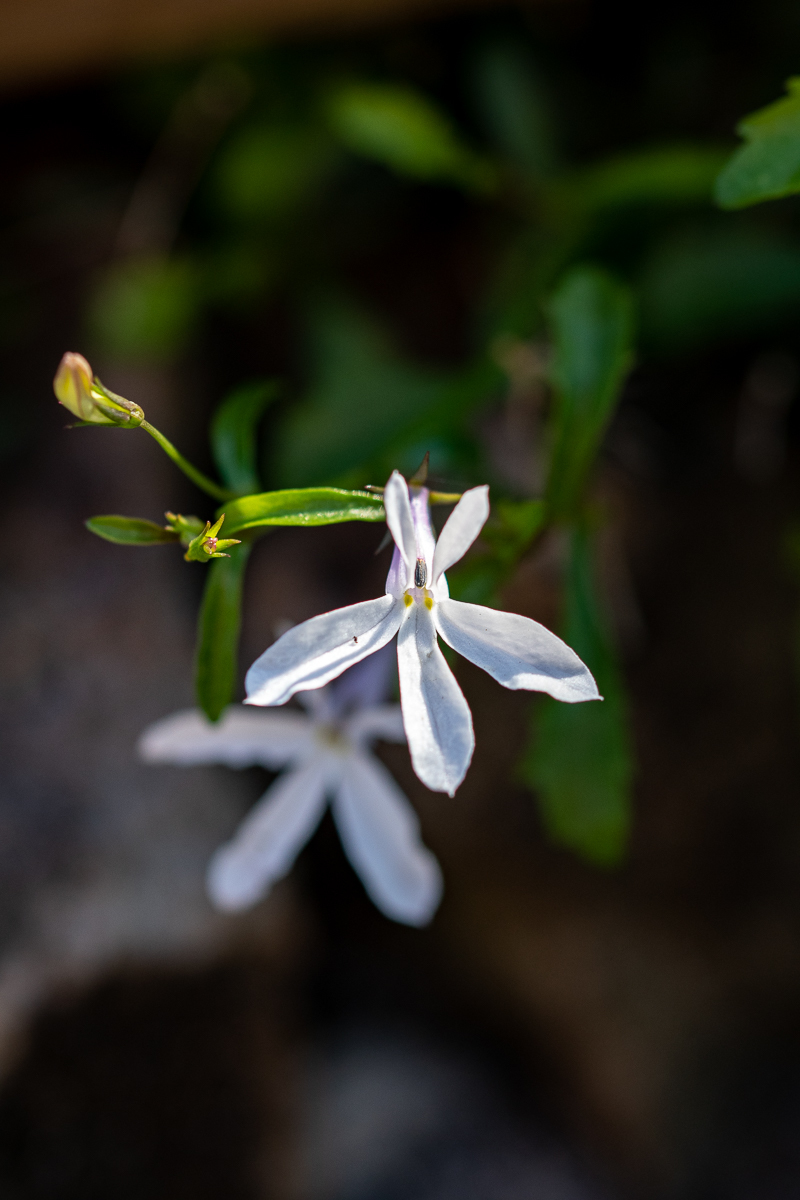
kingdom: Plantae
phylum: Tracheophyta
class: Magnoliopsida
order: Asterales
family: Campanulaceae
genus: Lobelia
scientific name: Lobelia pubescens
